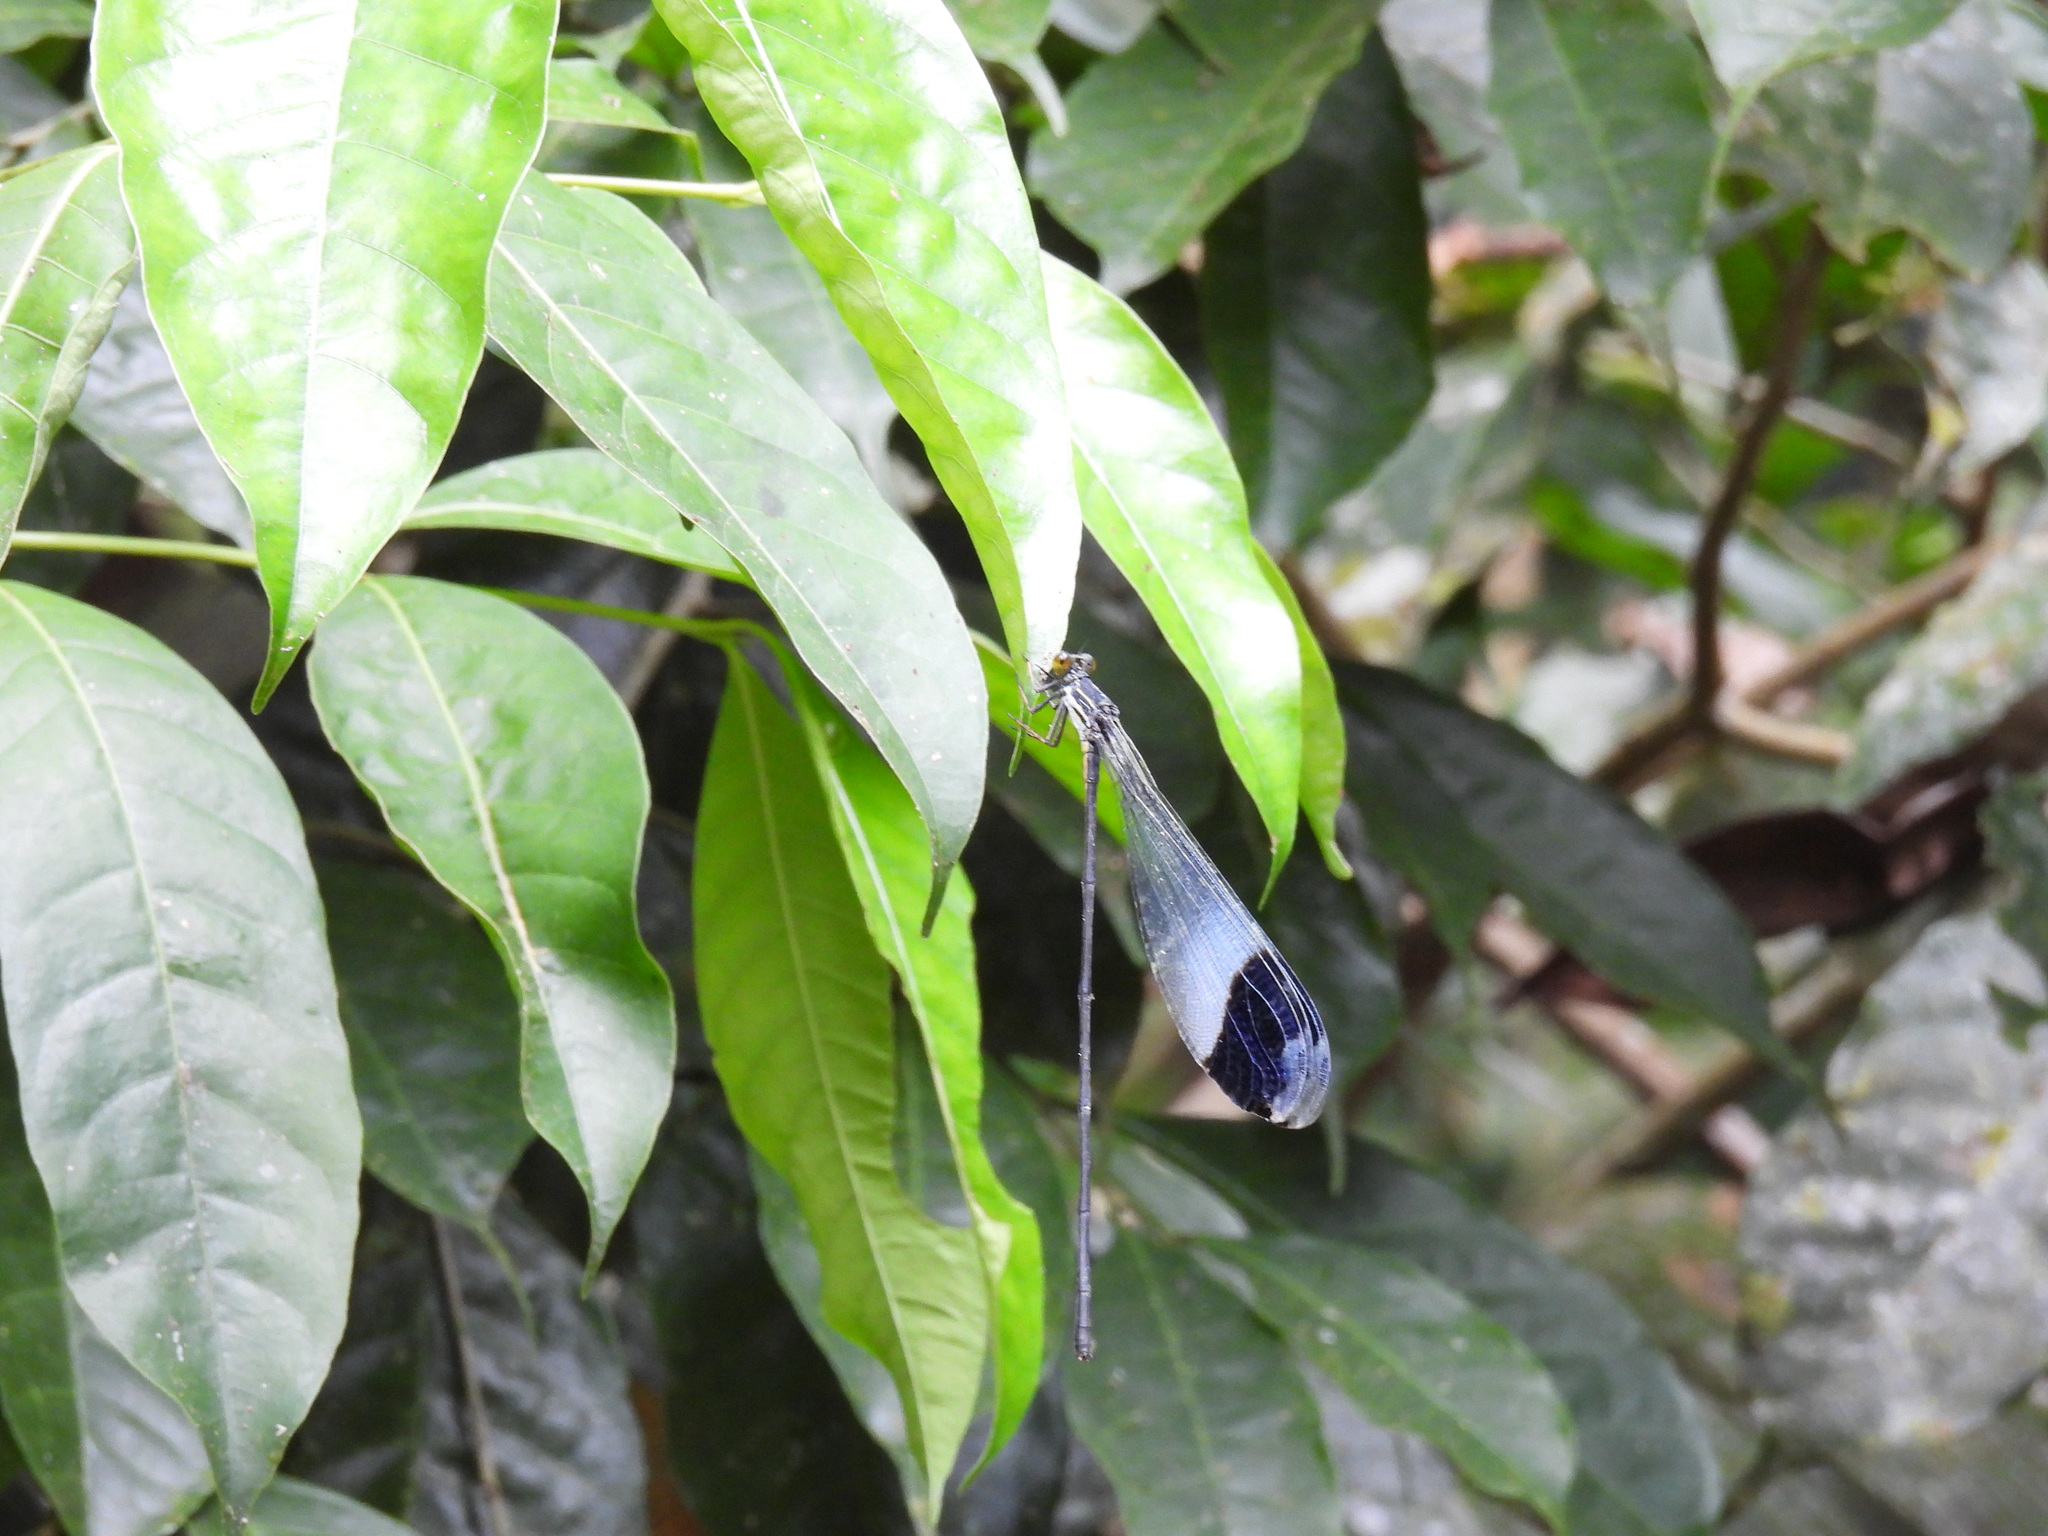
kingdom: Animalia
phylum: Arthropoda
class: Insecta
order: Odonata
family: Coenagrionidae
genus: Megaloprepus
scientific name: Megaloprepus caerulatus
